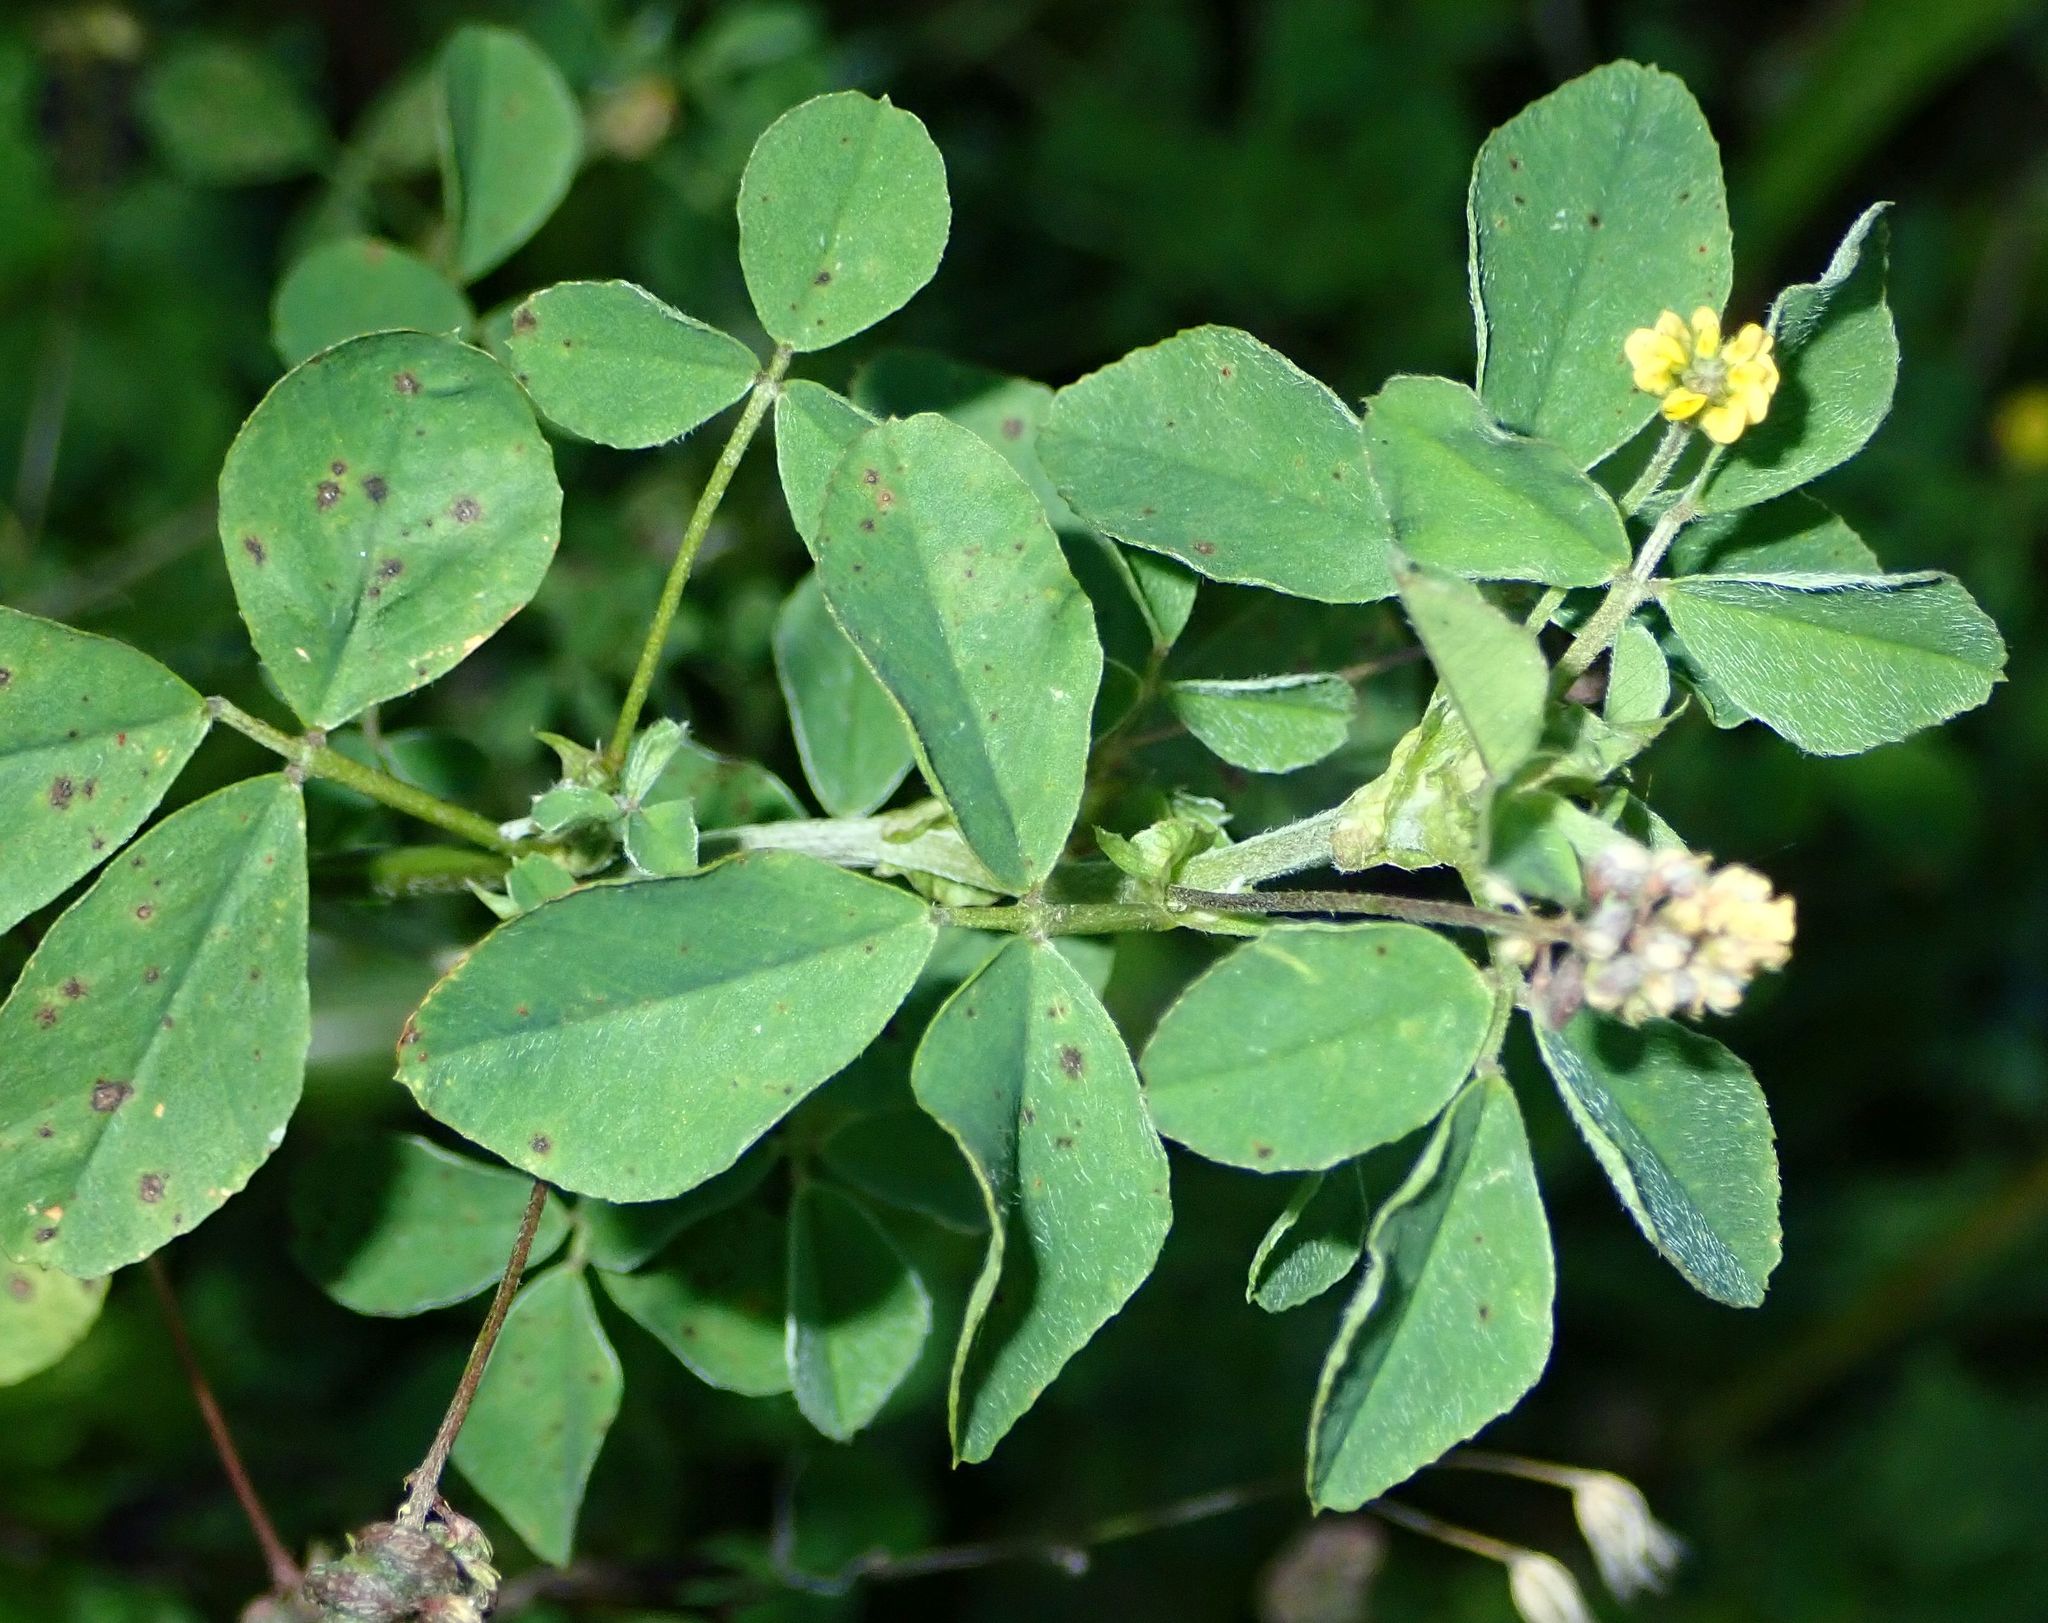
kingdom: Plantae
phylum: Tracheophyta
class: Magnoliopsida
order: Fabales
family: Fabaceae
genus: Medicago
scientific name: Medicago lupulina
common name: Black medick
